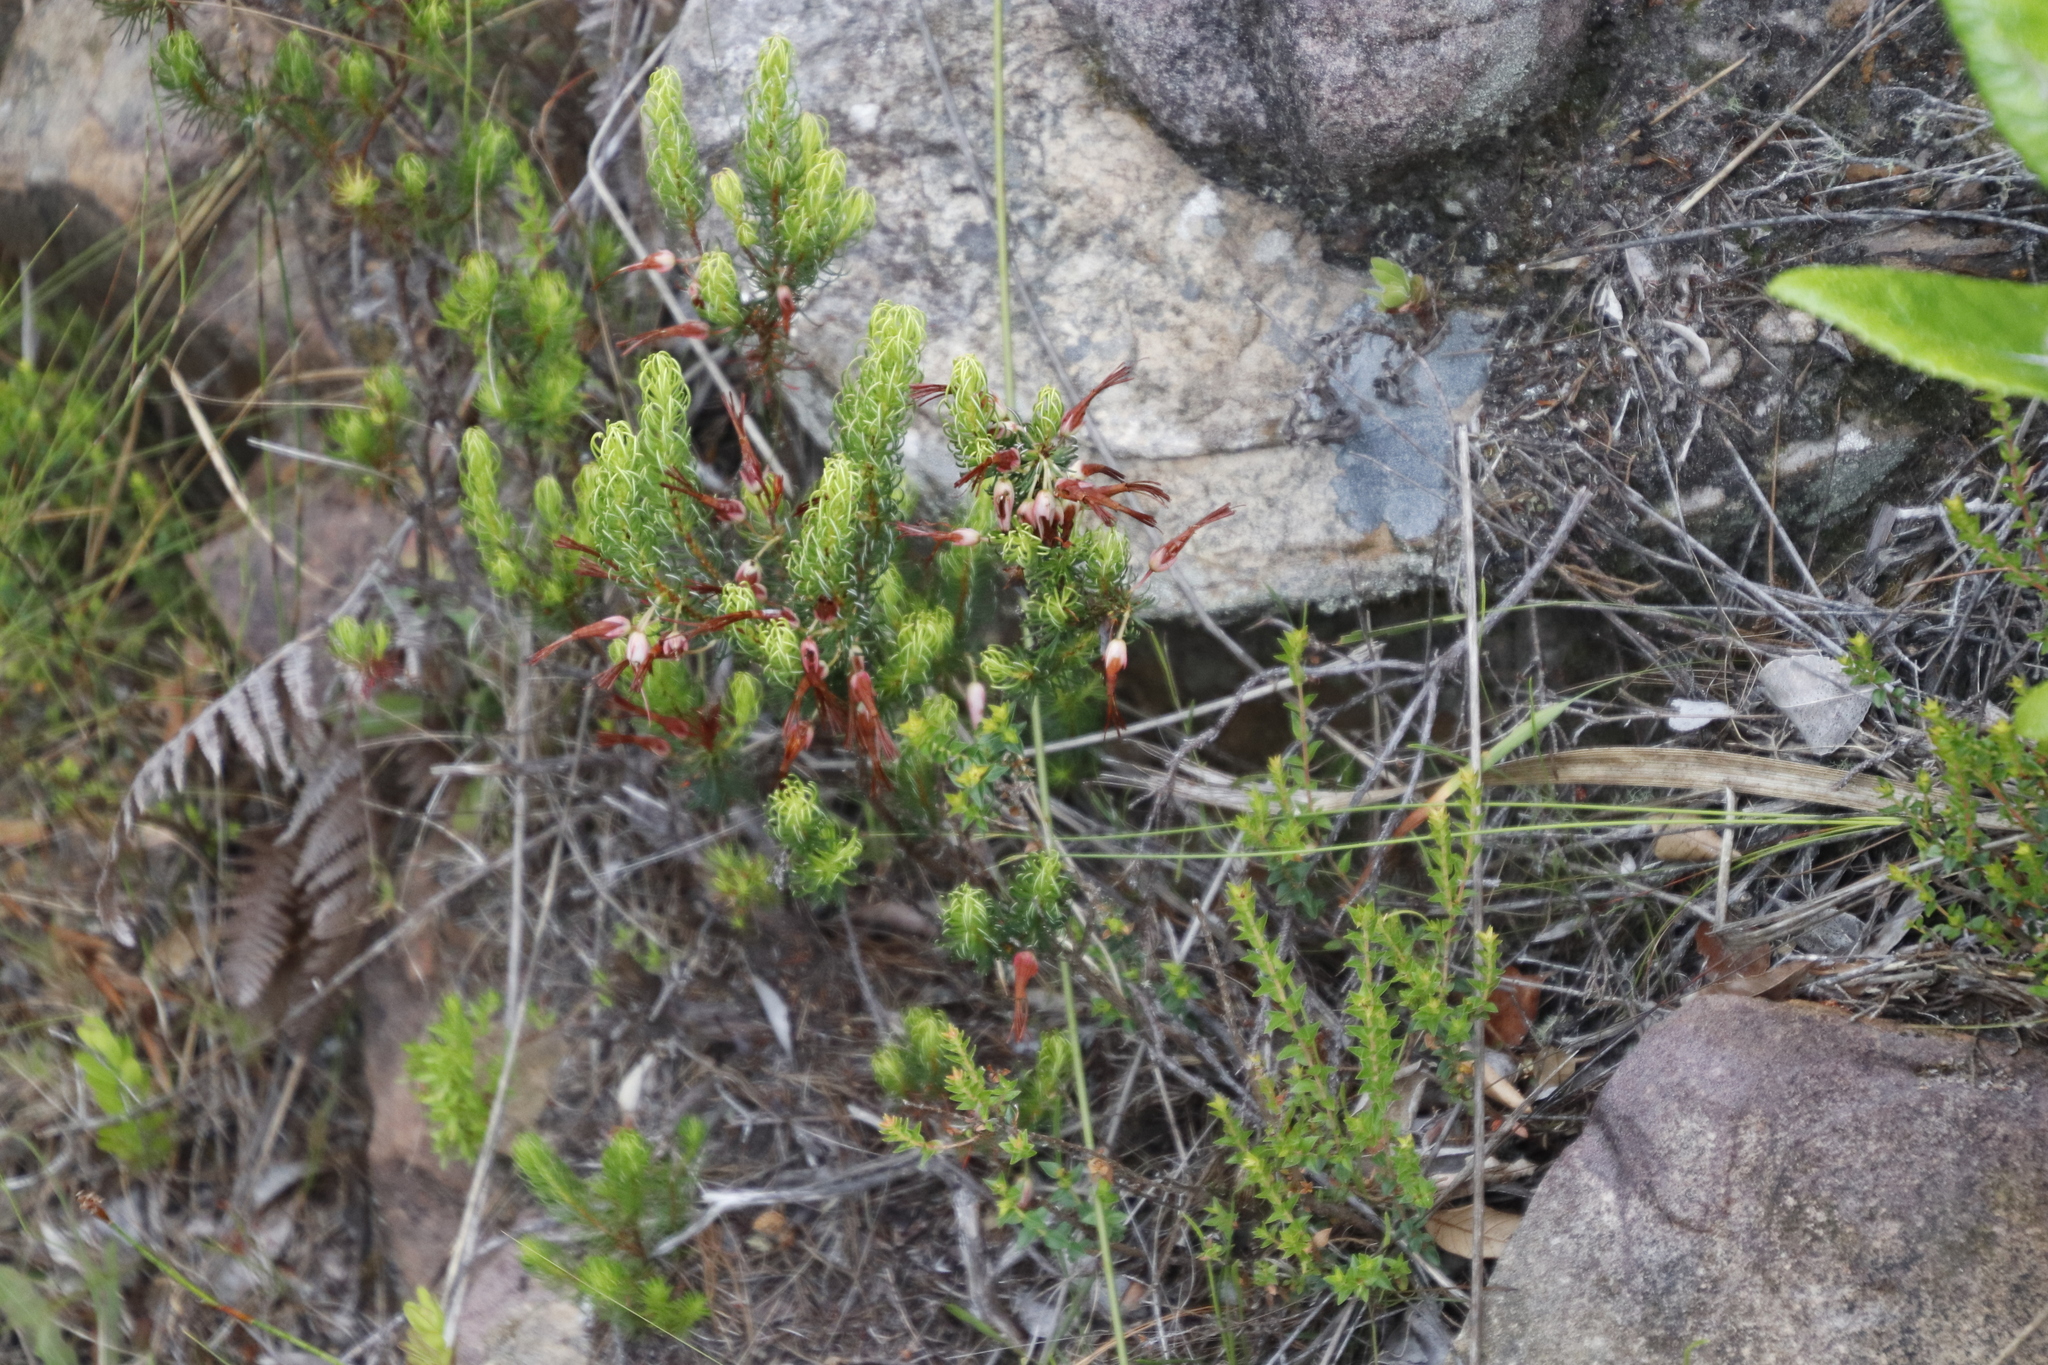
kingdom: Plantae
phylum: Tracheophyta
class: Magnoliopsida
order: Ericales
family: Ericaceae
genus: Erica
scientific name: Erica plukenetii
